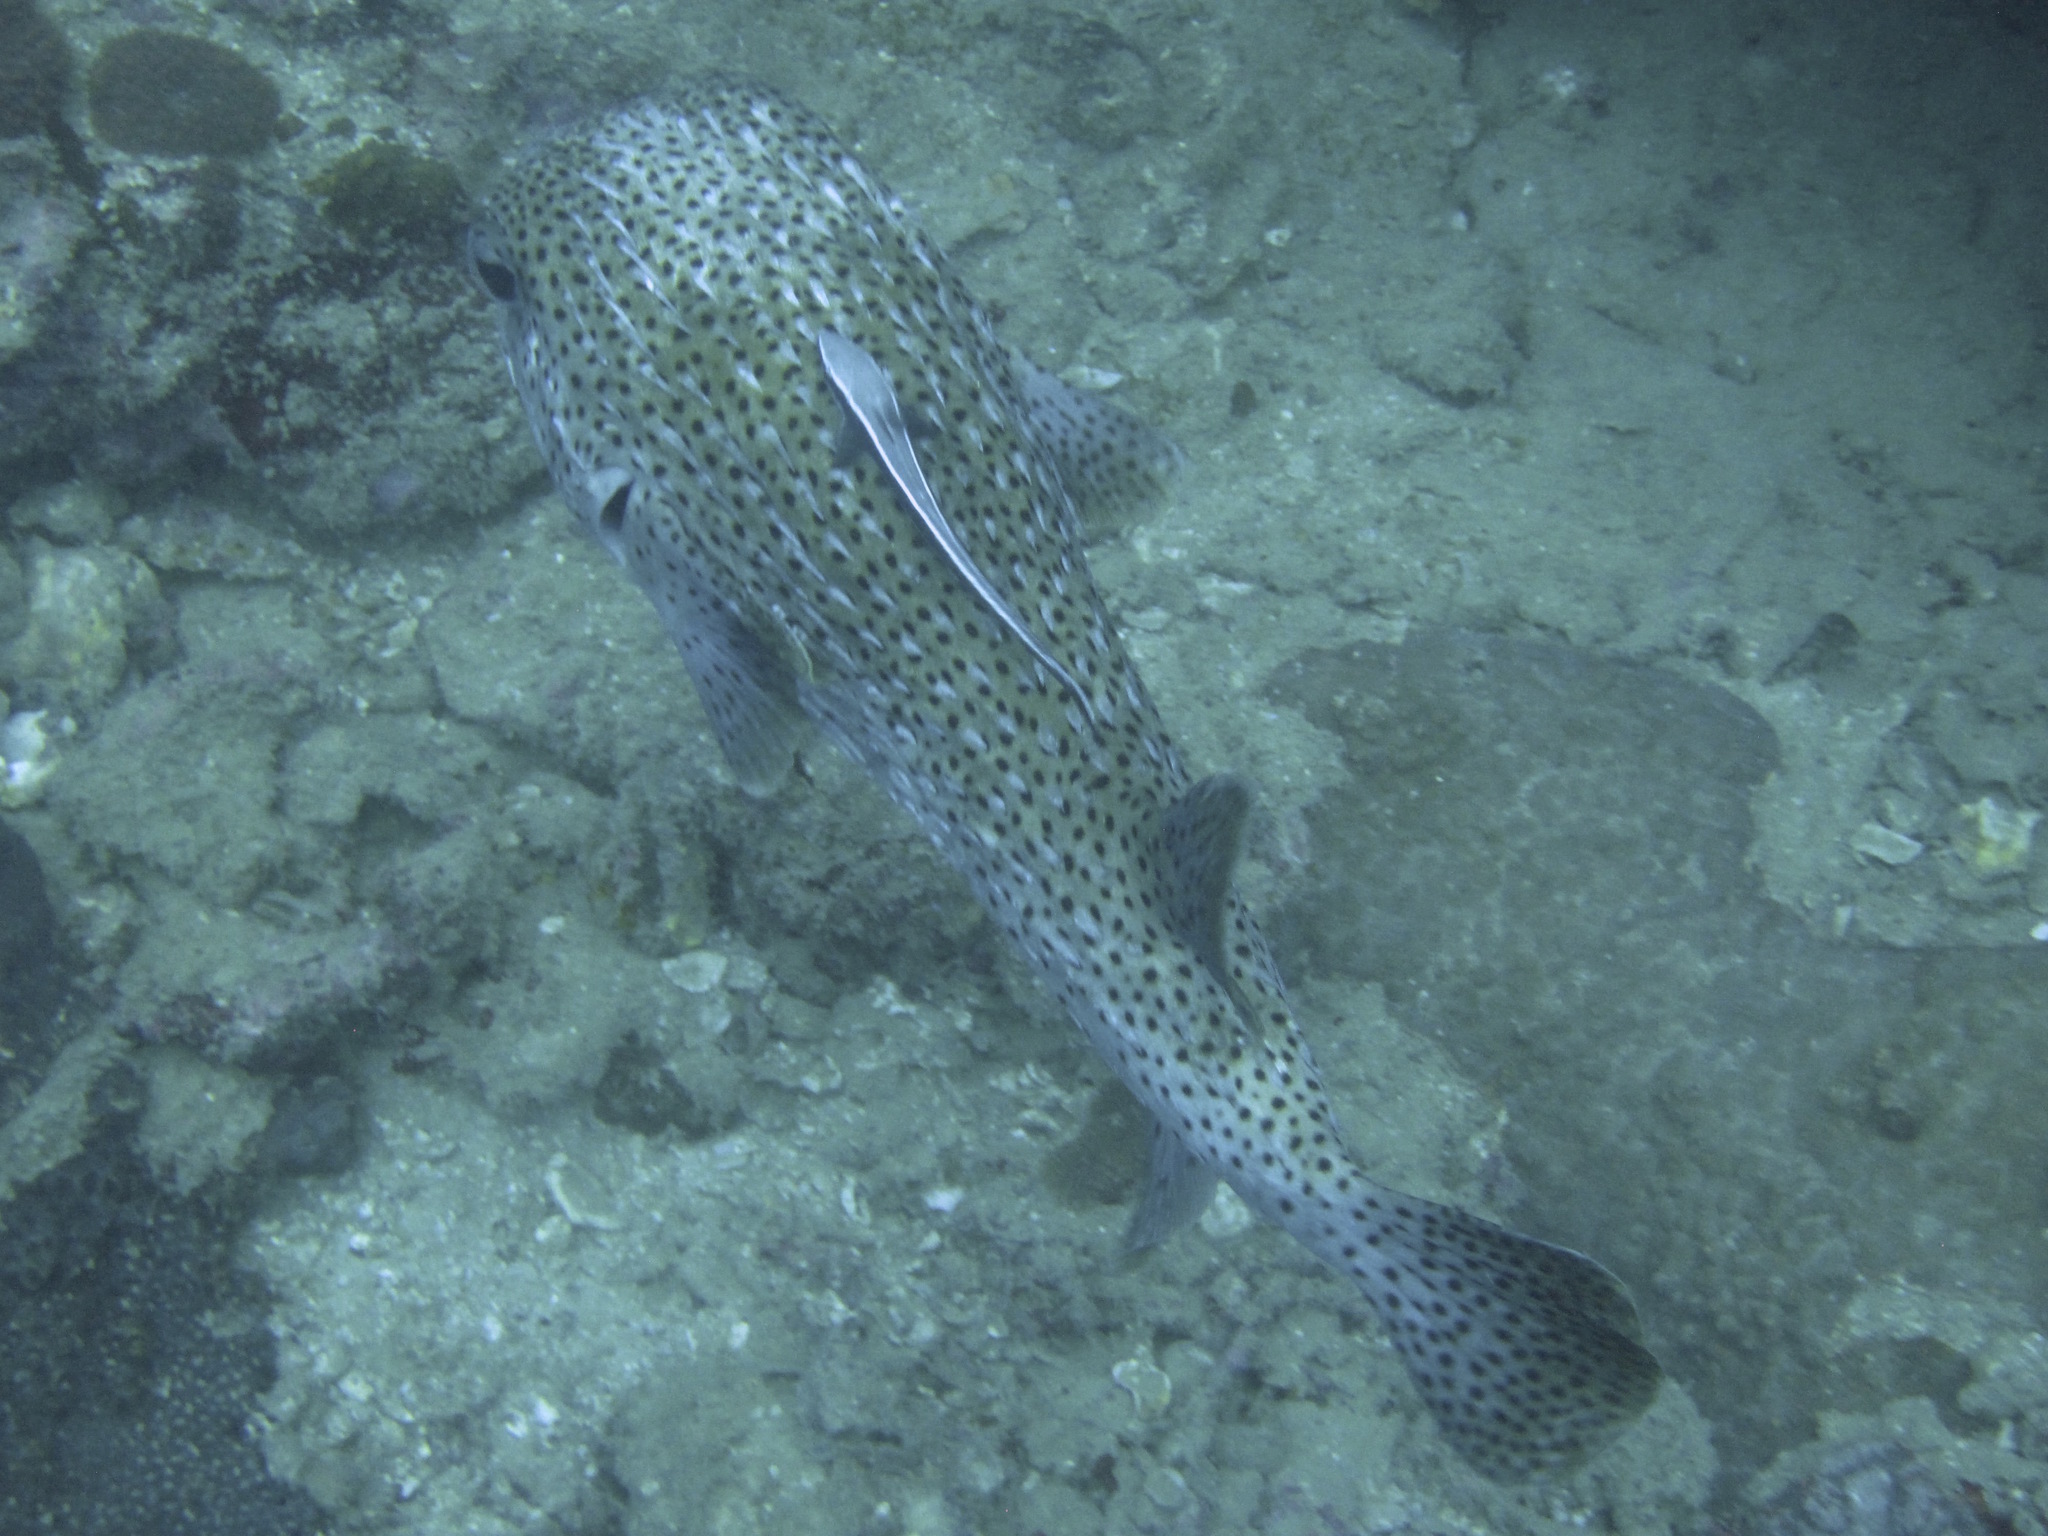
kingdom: Animalia
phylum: Chordata
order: Perciformes
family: Echeneidae
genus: Echeneis
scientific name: Echeneis naucrates
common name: Sharksucker
